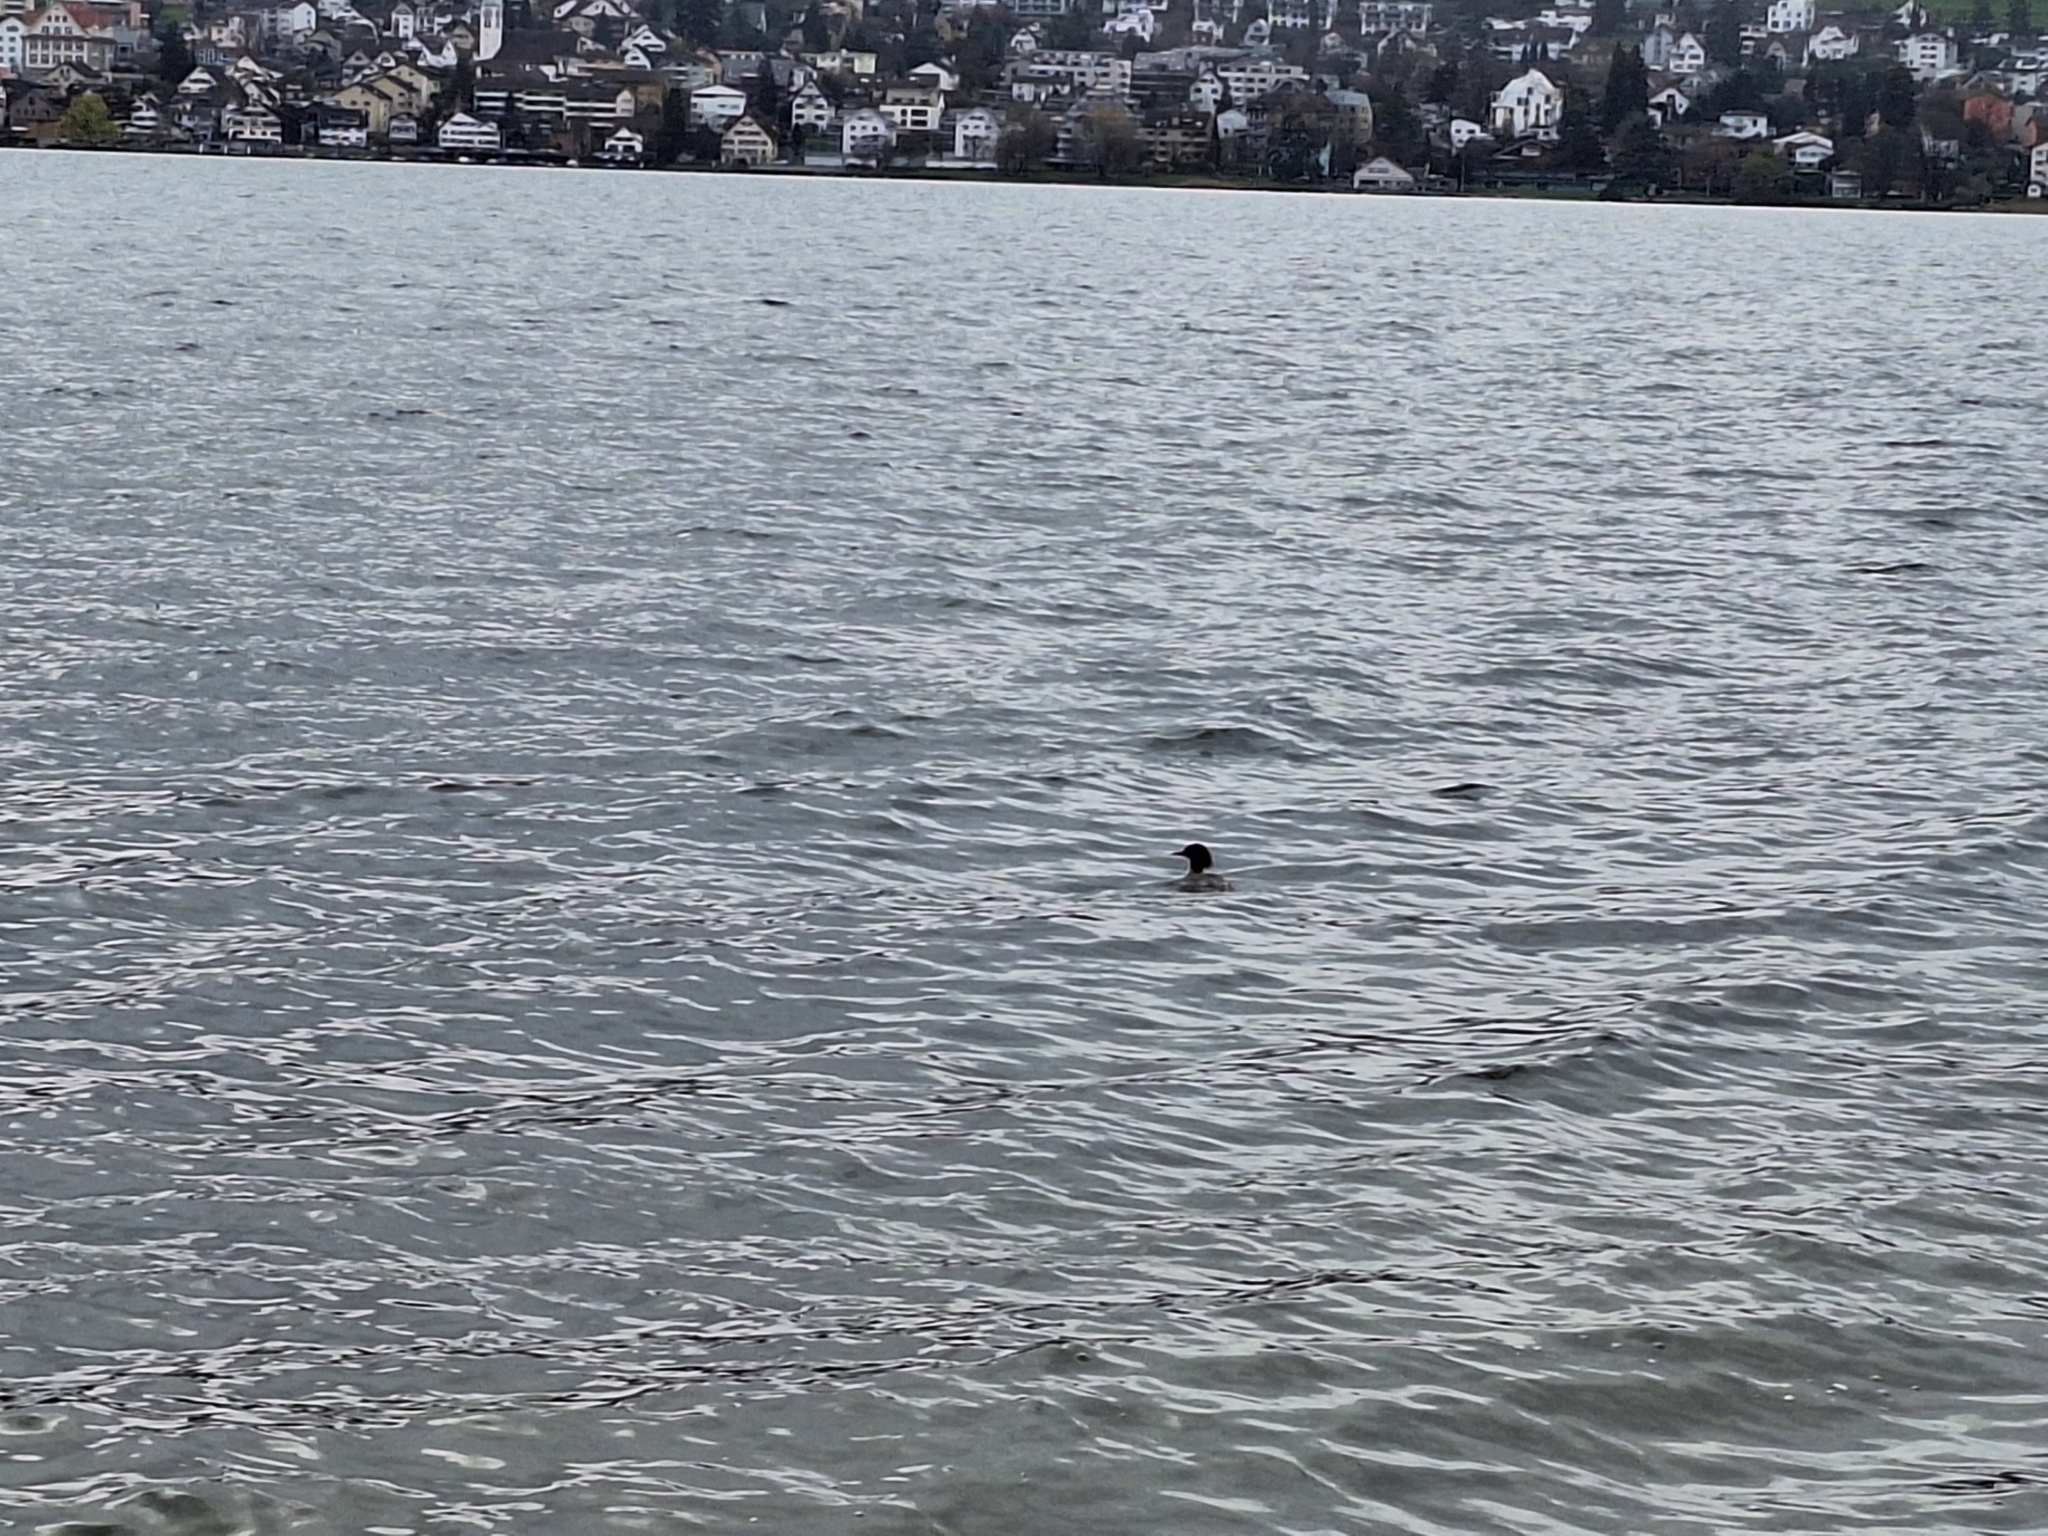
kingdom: Animalia
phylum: Chordata
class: Aves
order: Anseriformes
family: Anatidae
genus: Mergus
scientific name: Mergus merganser
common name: Common merganser
